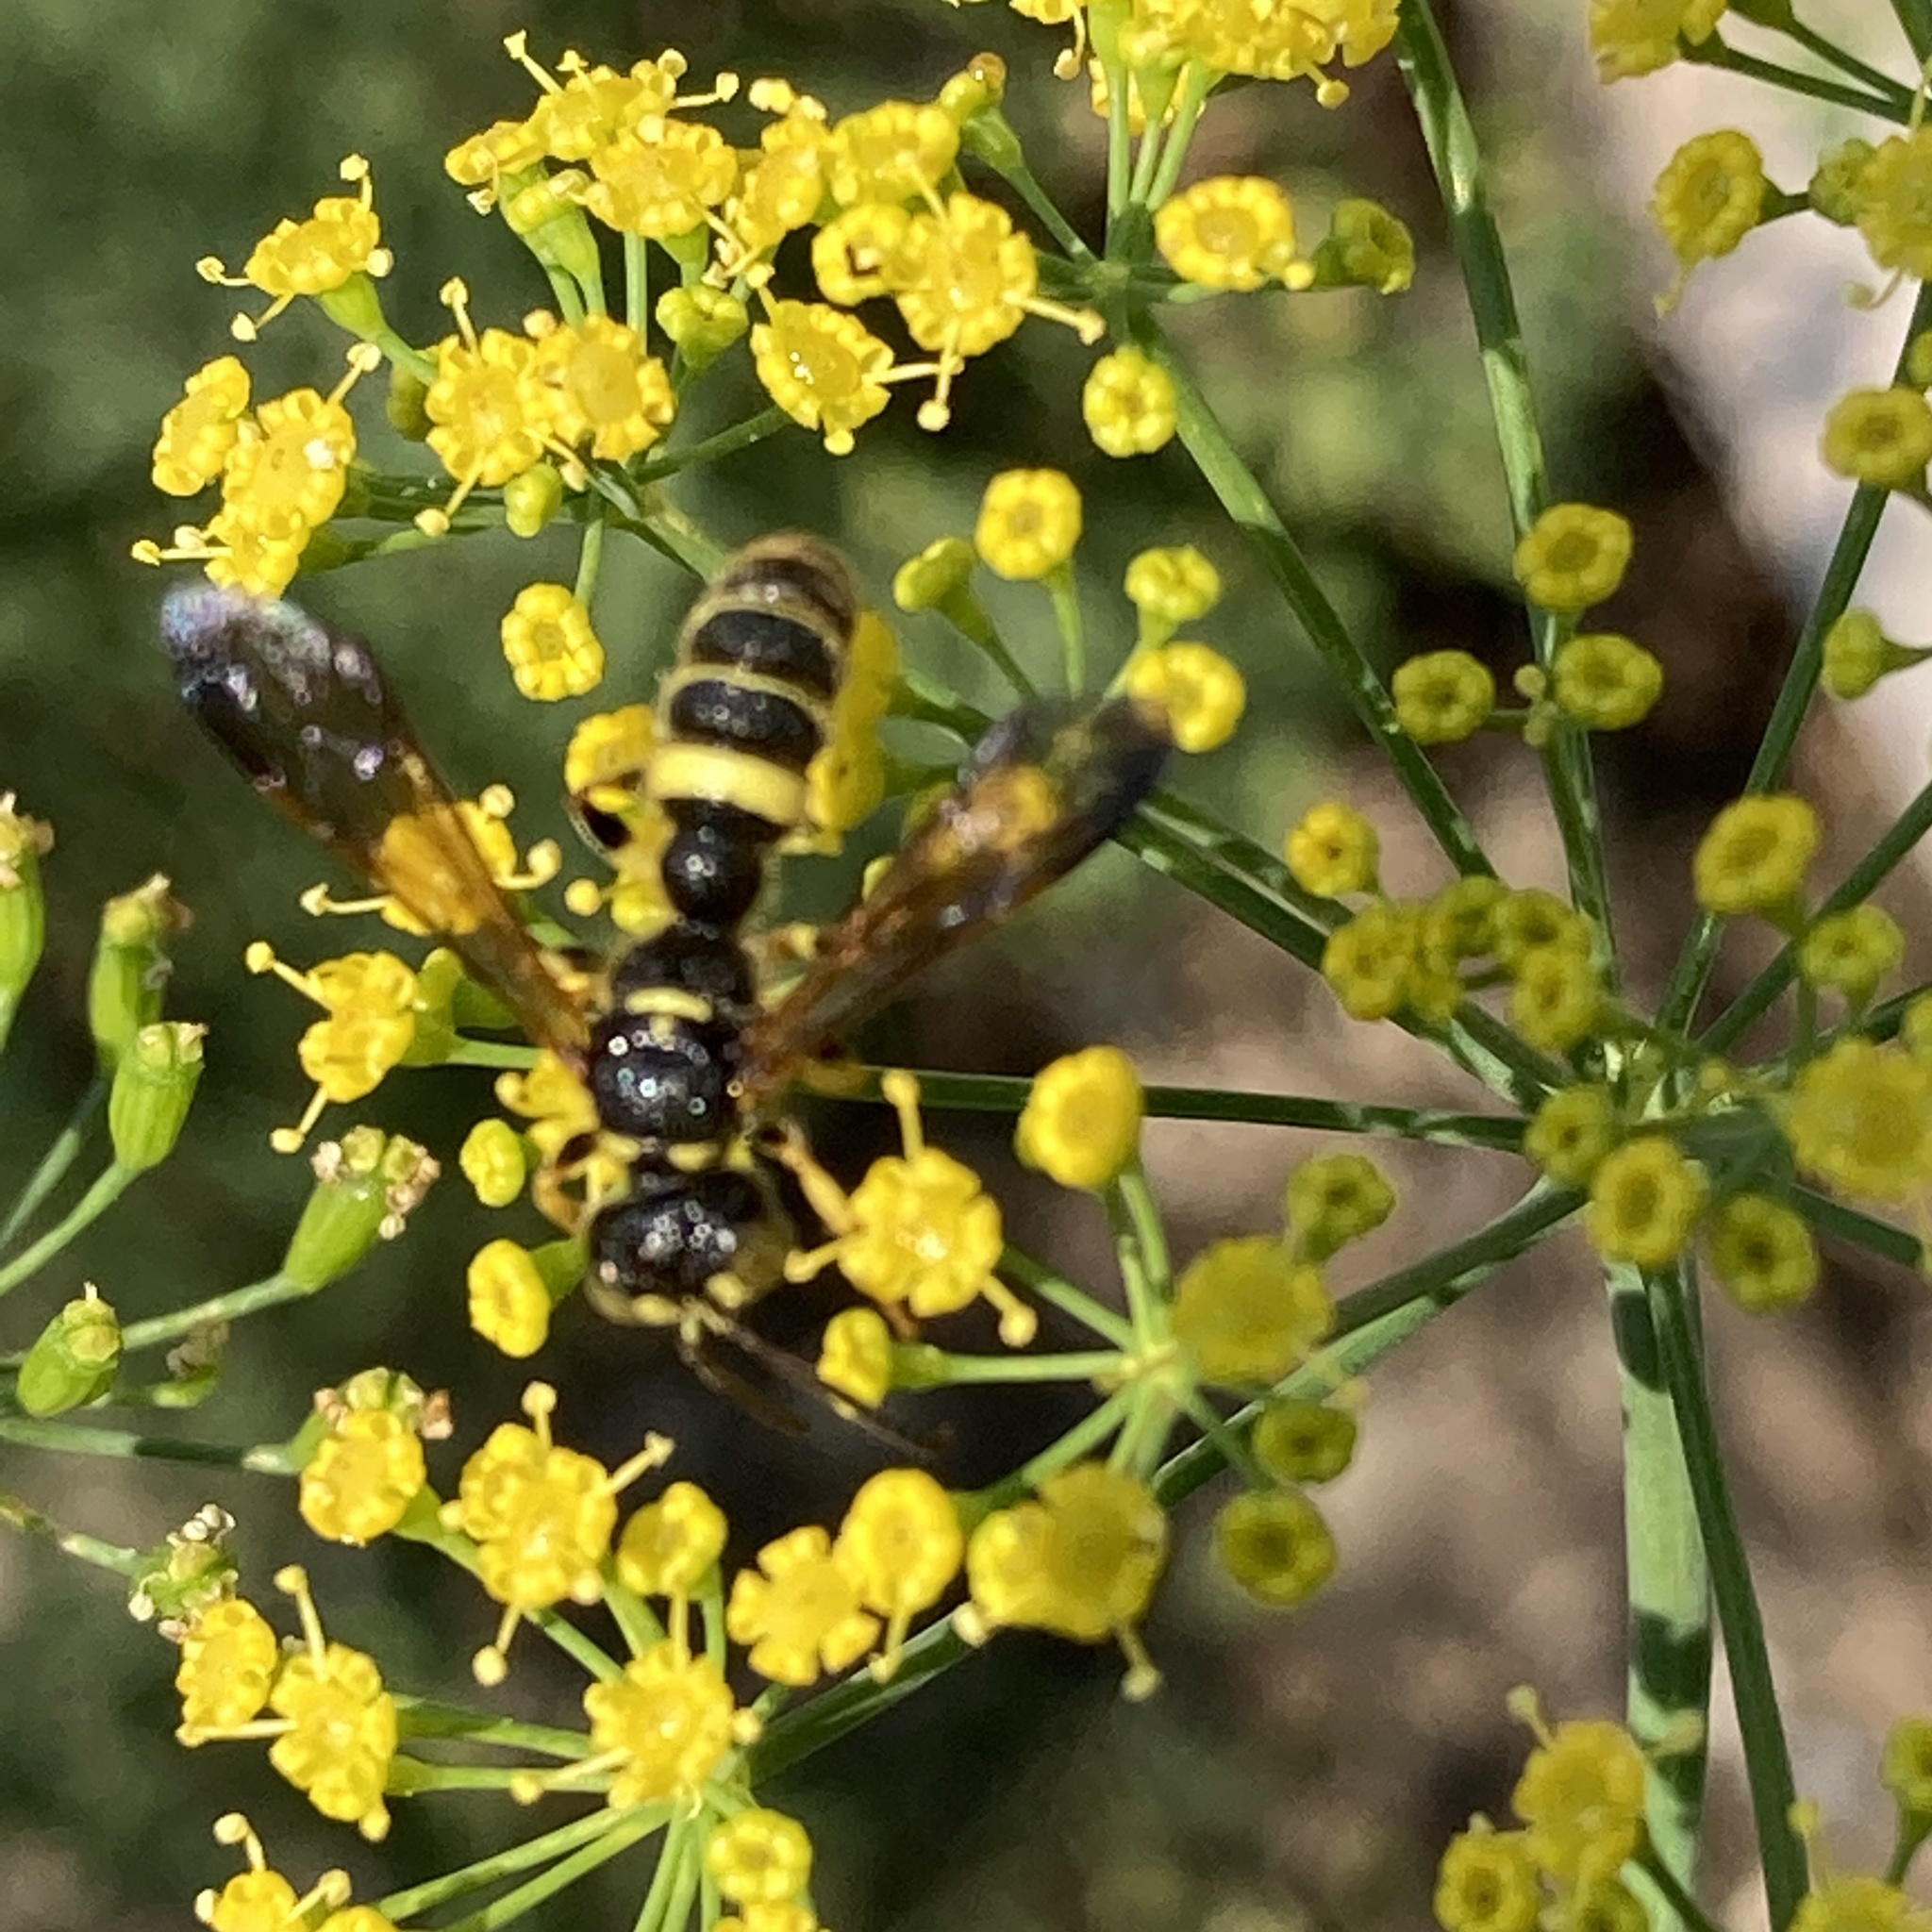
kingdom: Animalia
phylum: Arthropoda
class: Insecta
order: Hymenoptera
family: Crabronidae
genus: Cerceris
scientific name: Cerceris
